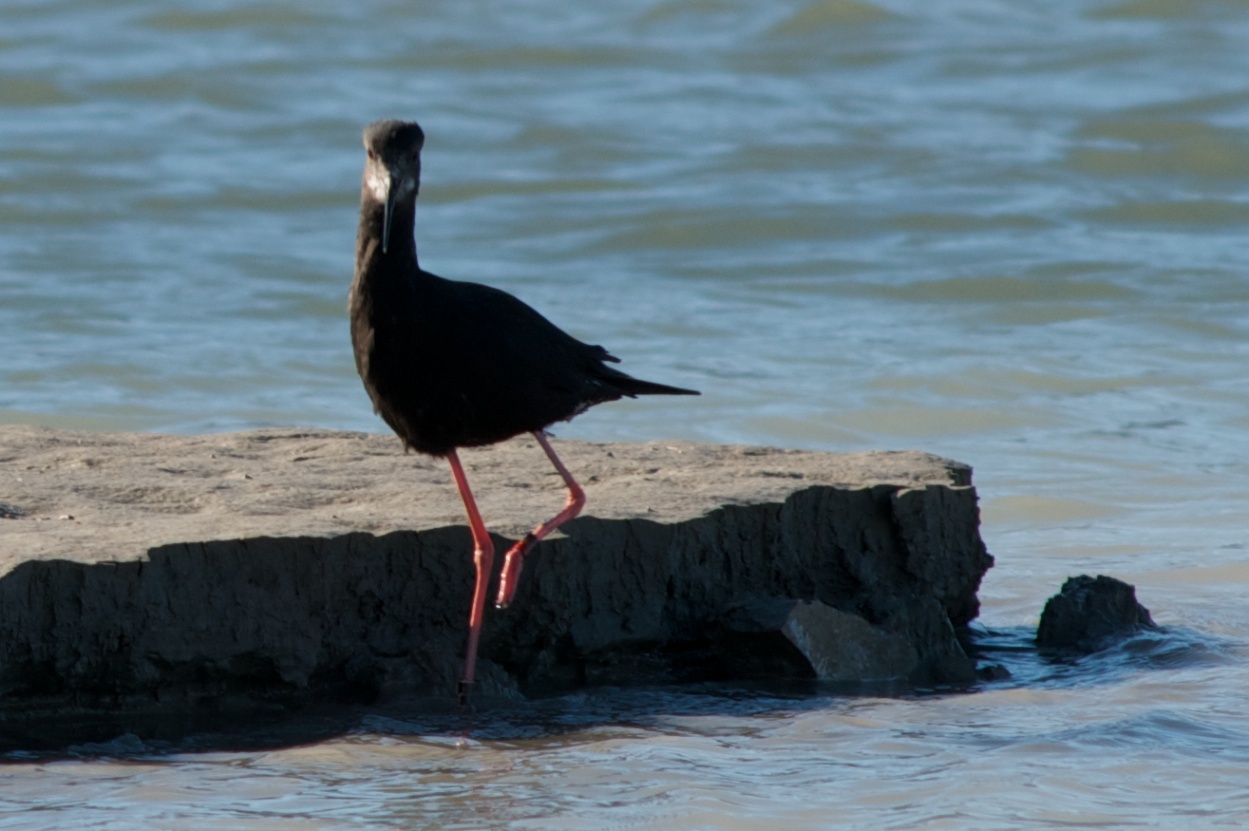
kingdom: Animalia
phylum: Chordata
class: Aves
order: Charadriiformes
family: Recurvirostridae
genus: Himantopus
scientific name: Himantopus novaezelandiae
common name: Black stilt
